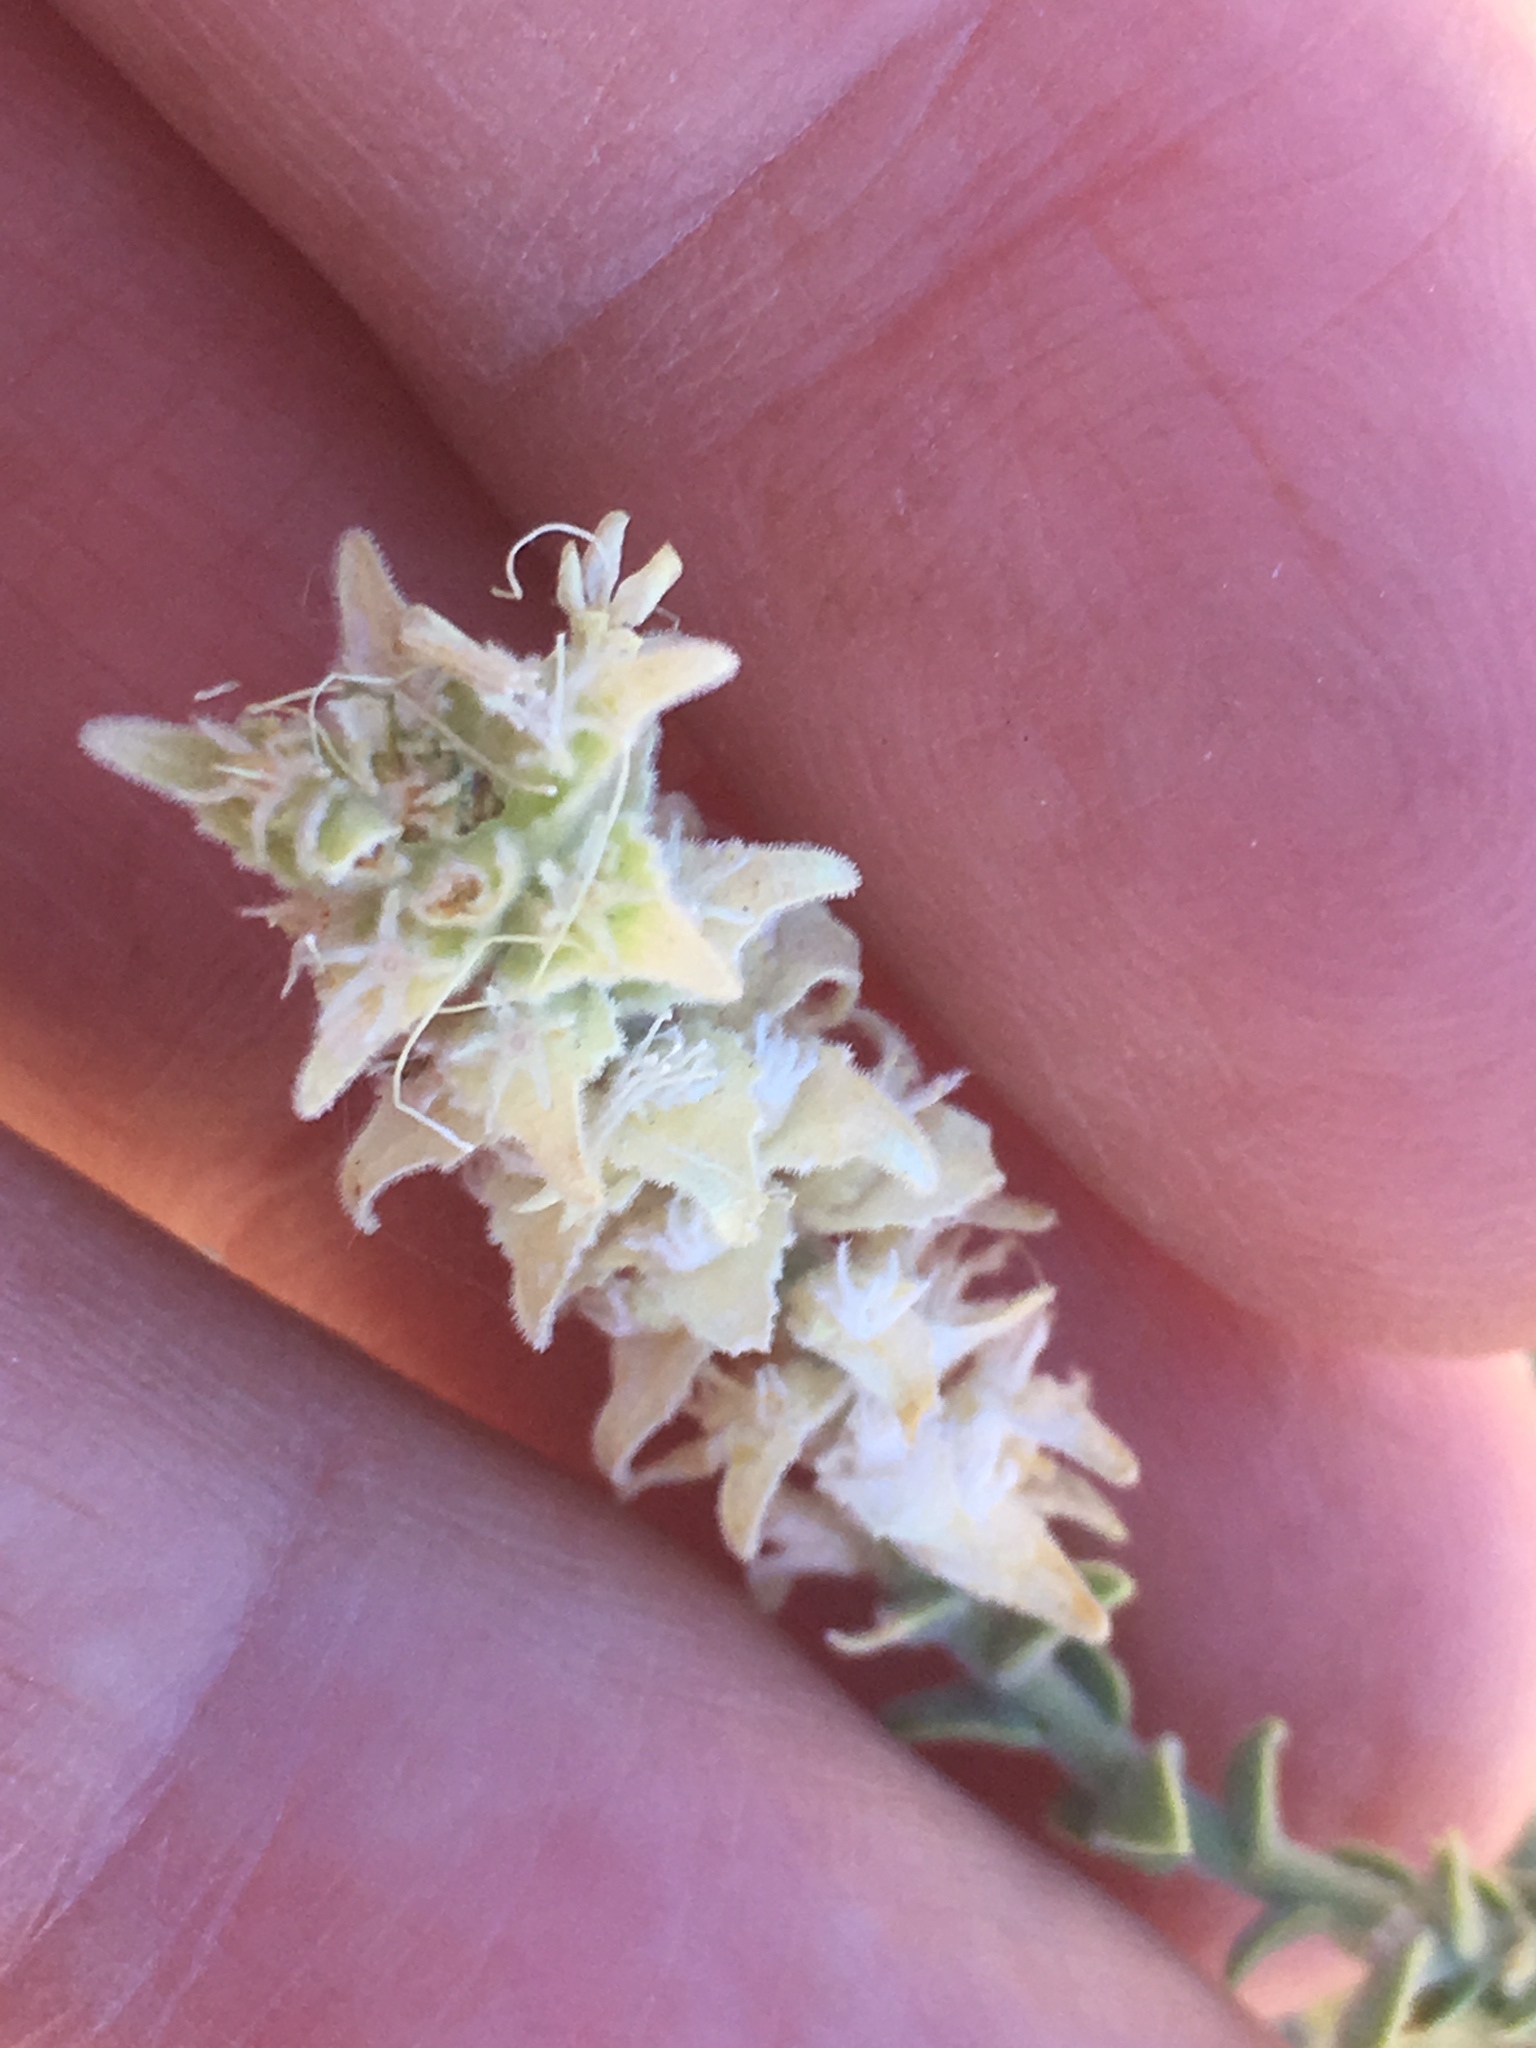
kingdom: Plantae
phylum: Tracheophyta
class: Magnoliopsida
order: Cornales
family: Loasaceae
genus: Petalonyx
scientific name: Petalonyx thurberi
